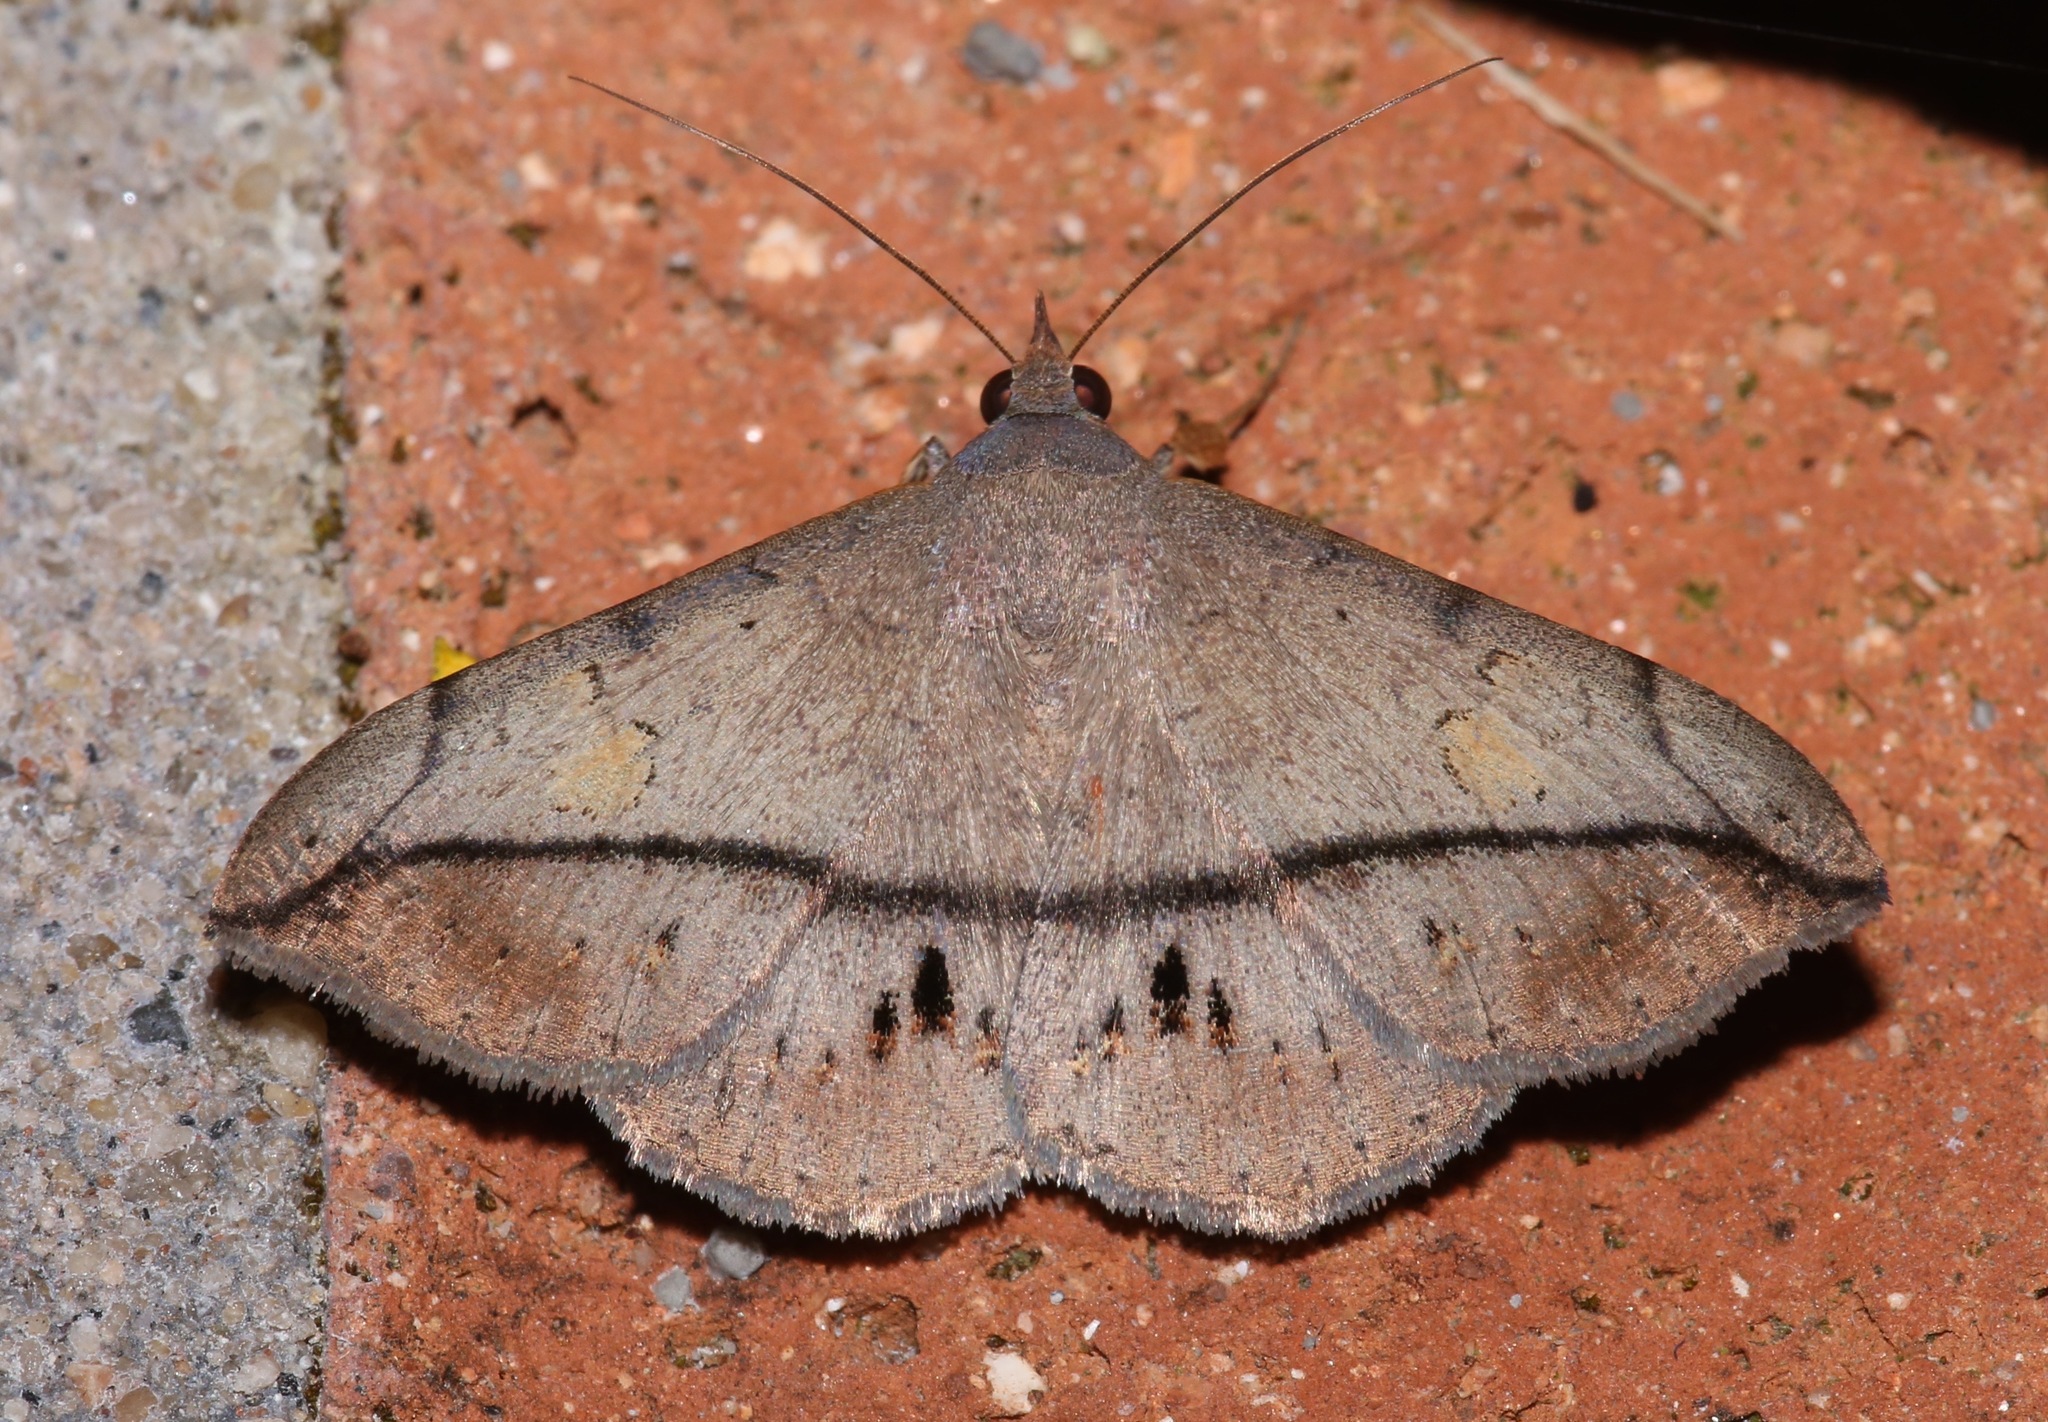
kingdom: Animalia
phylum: Arthropoda
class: Insecta
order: Lepidoptera
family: Erebidae
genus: Anticarsia
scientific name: Anticarsia gemmatalis
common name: Cutworm moth
